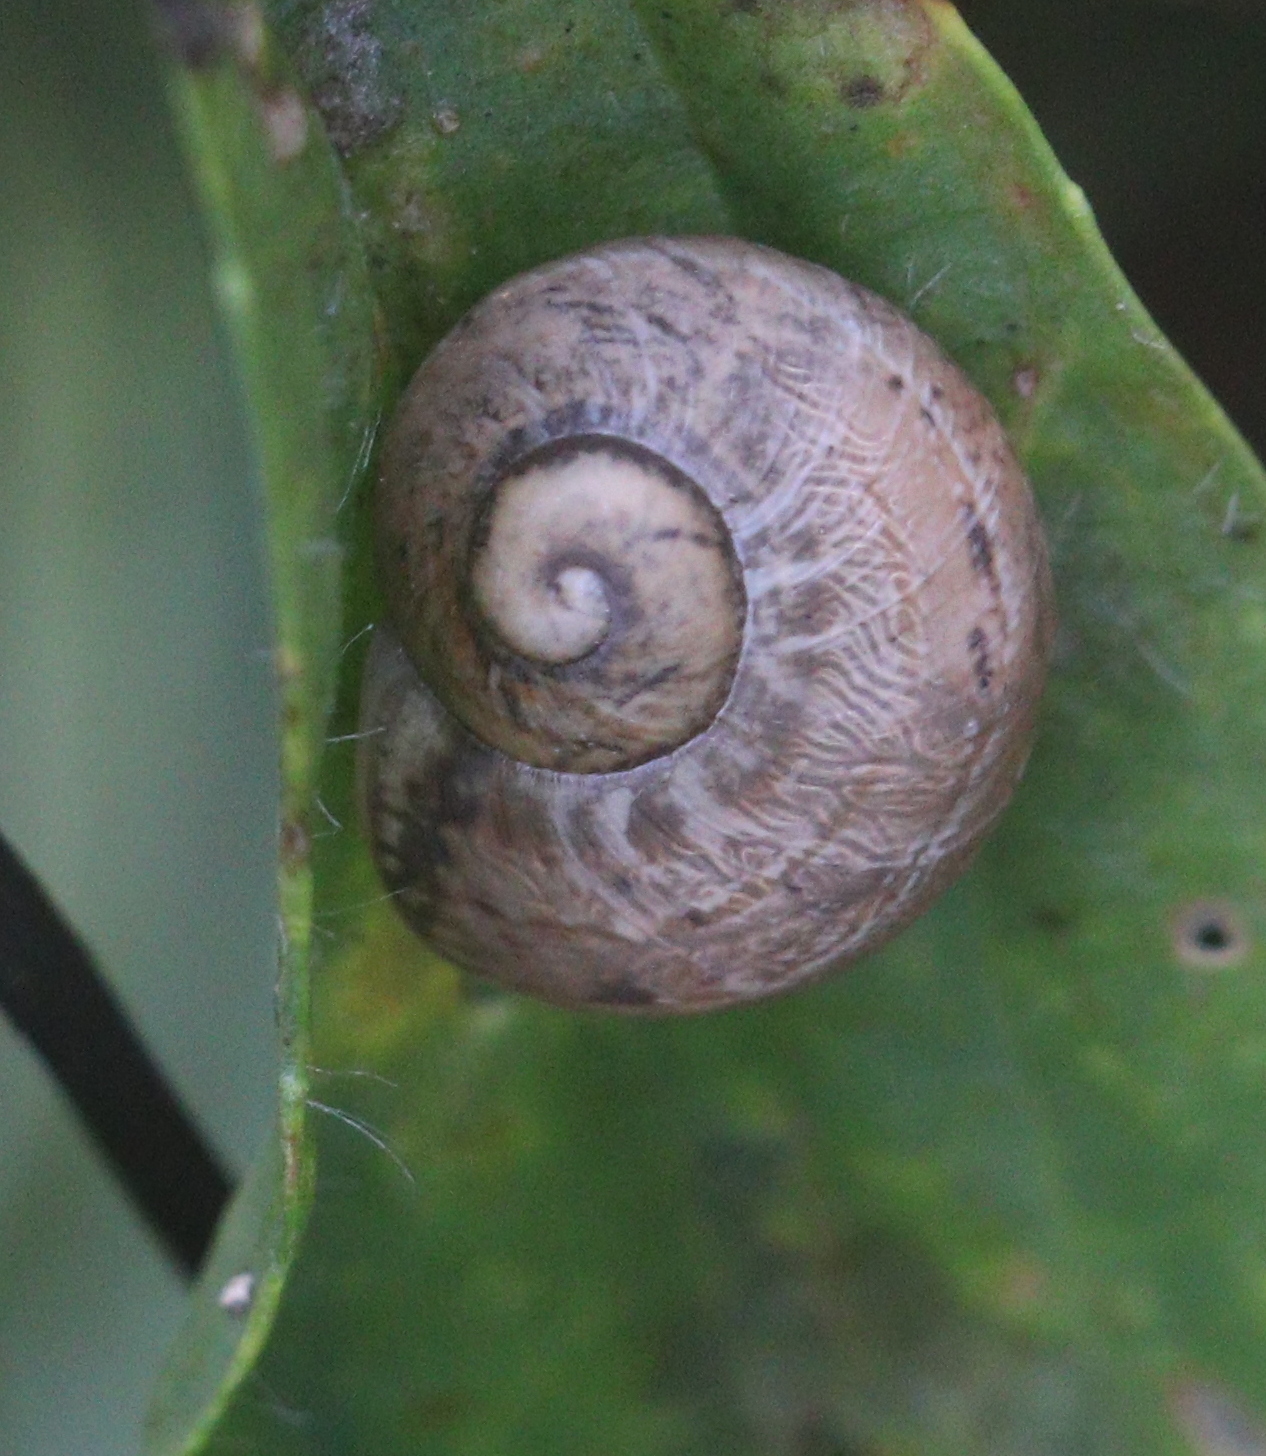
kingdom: Animalia
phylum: Mollusca
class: Gastropoda
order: Stylommatophora
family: Helicidae
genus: Cornu
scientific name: Cornu aspersum
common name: Brown garden snail
